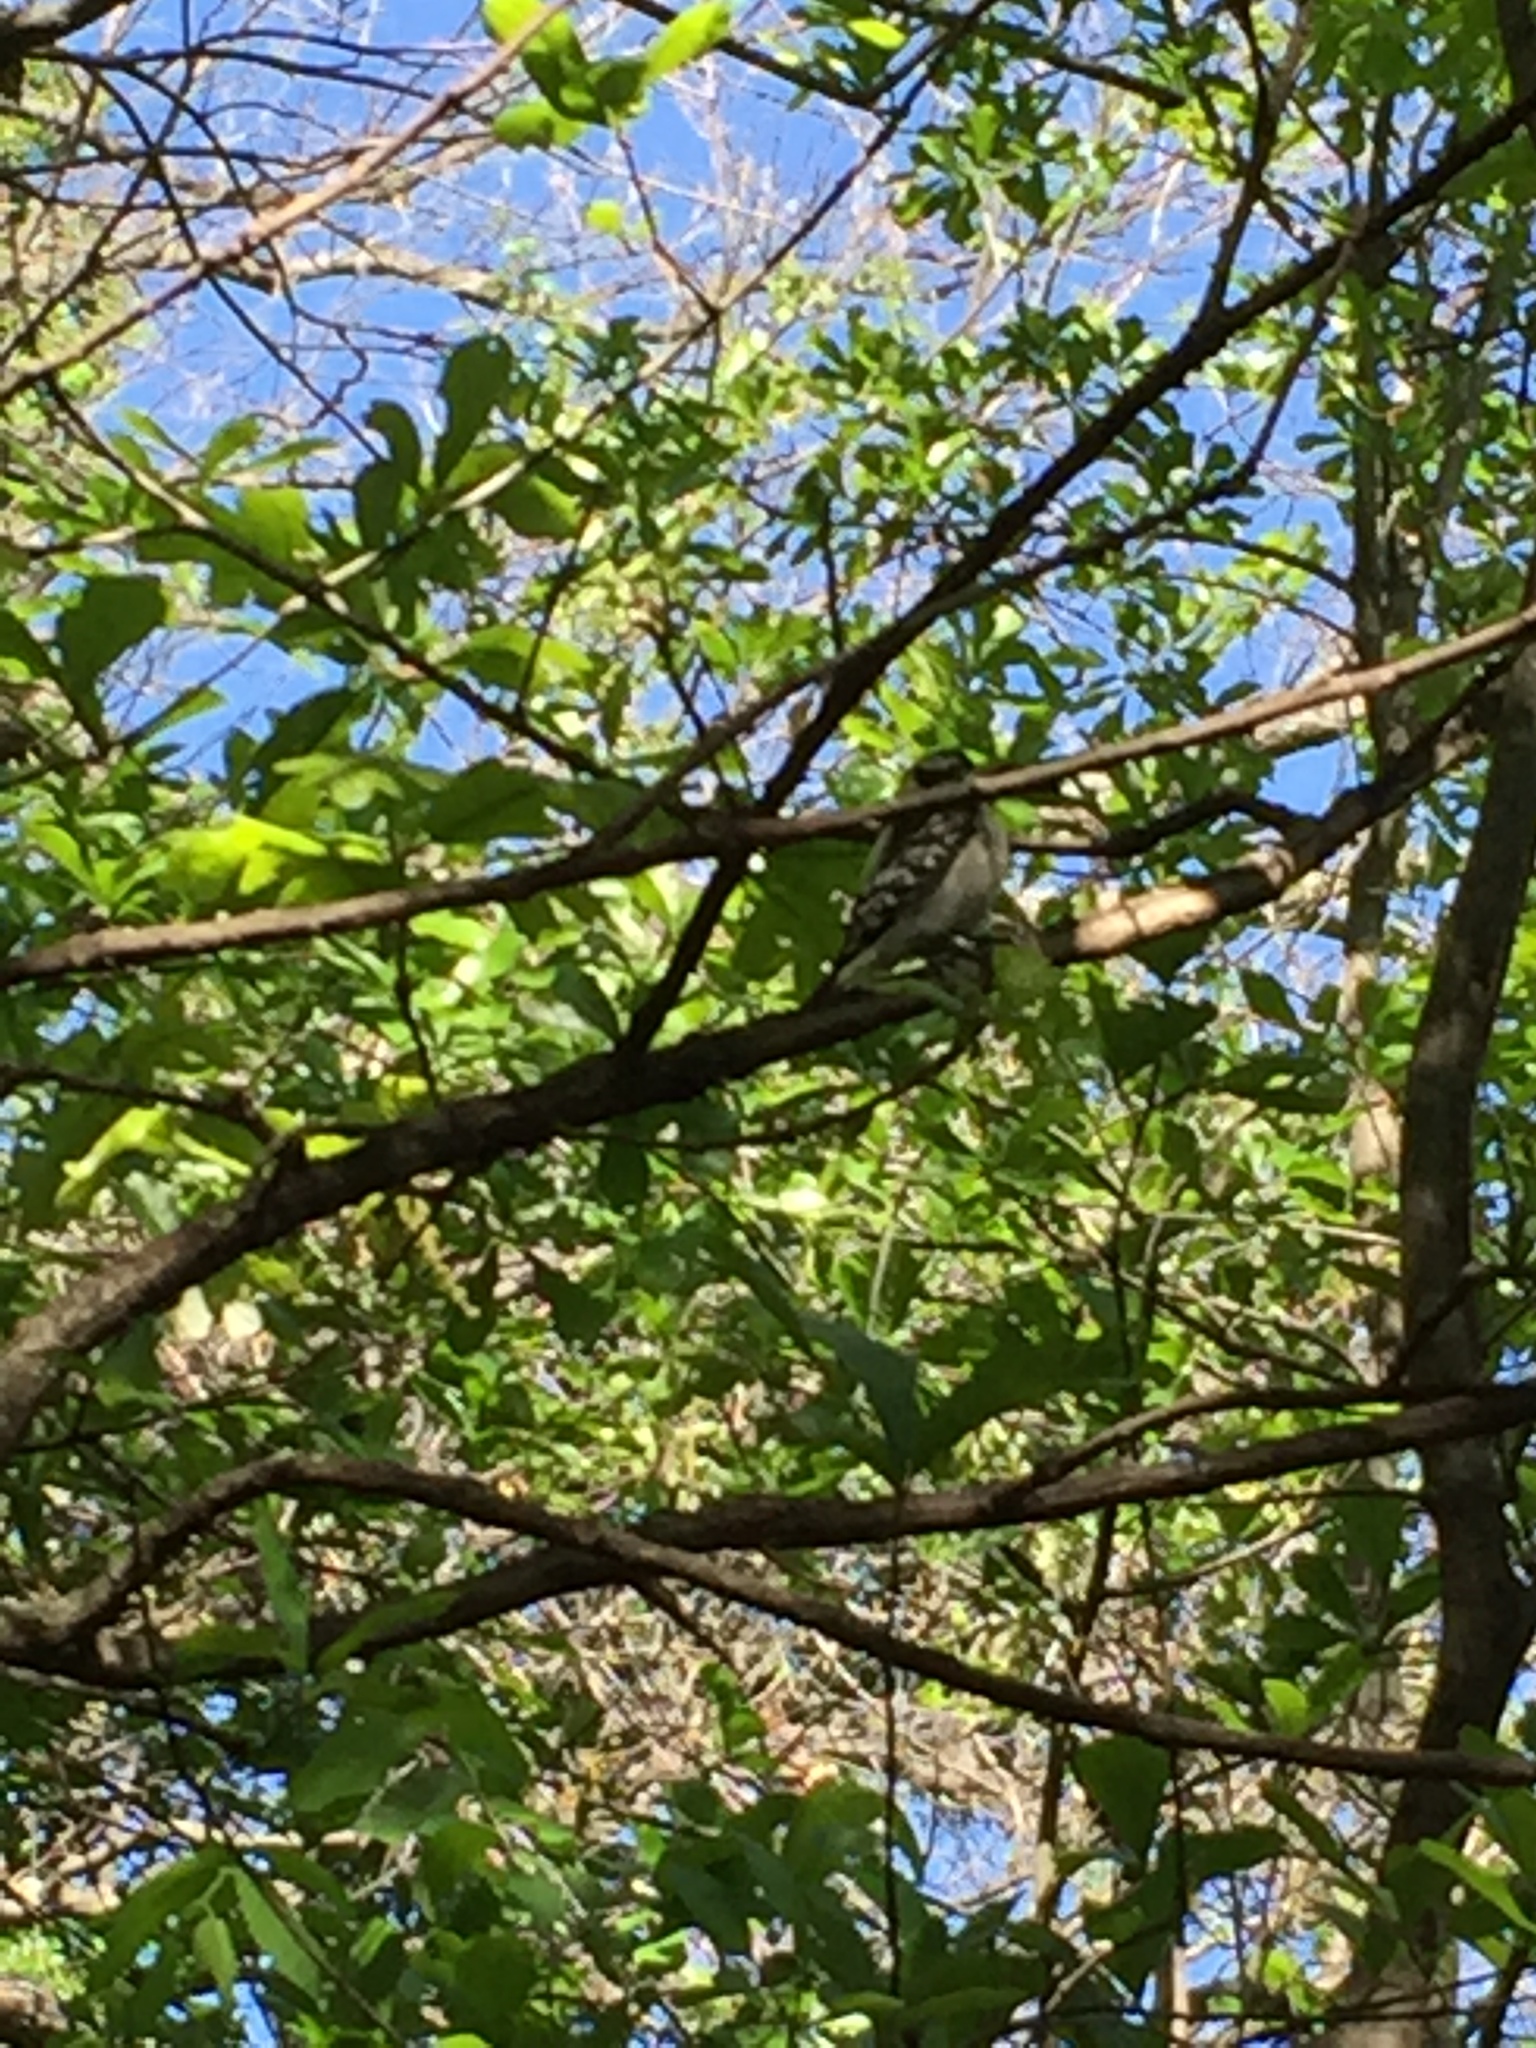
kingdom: Animalia
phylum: Chordata
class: Aves
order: Piciformes
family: Picidae
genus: Dryobates
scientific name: Dryobates pubescens
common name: Downy woodpecker
